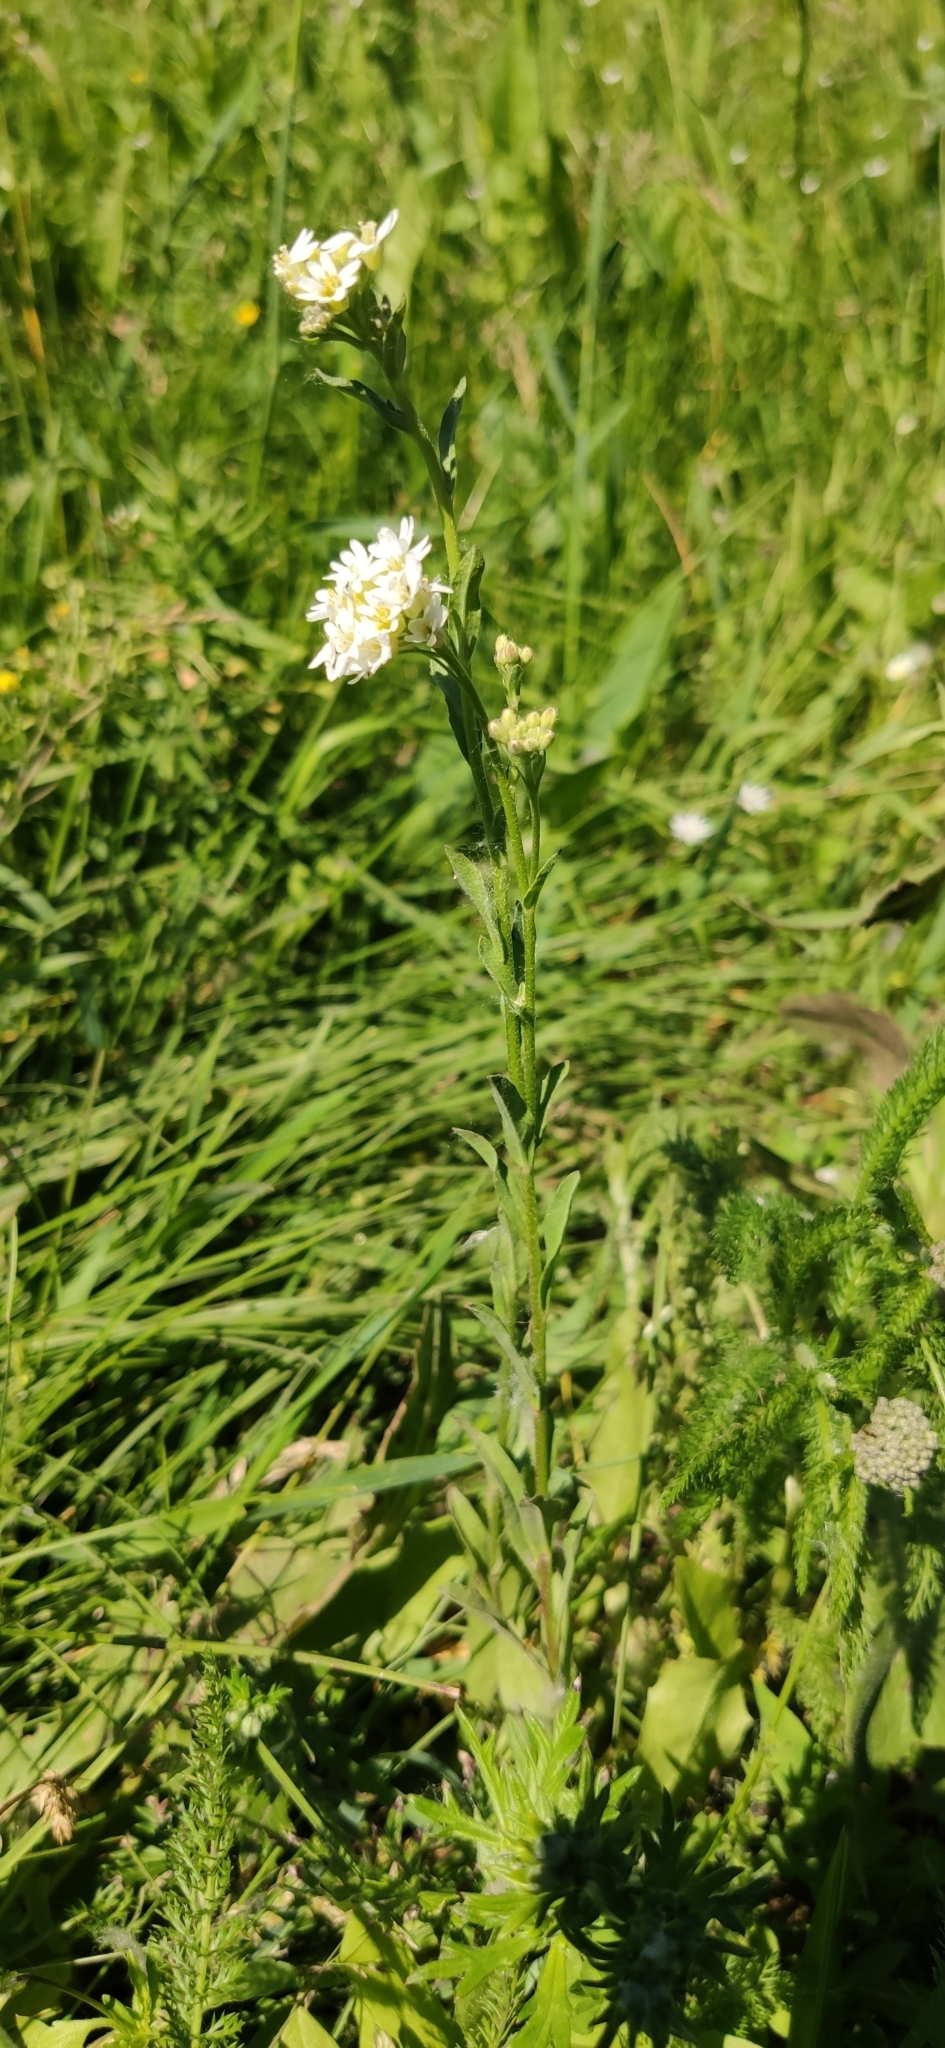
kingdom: Plantae
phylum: Tracheophyta
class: Magnoliopsida
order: Brassicales
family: Brassicaceae
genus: Berteroa
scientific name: Berteroa incana
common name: Hoary alison
